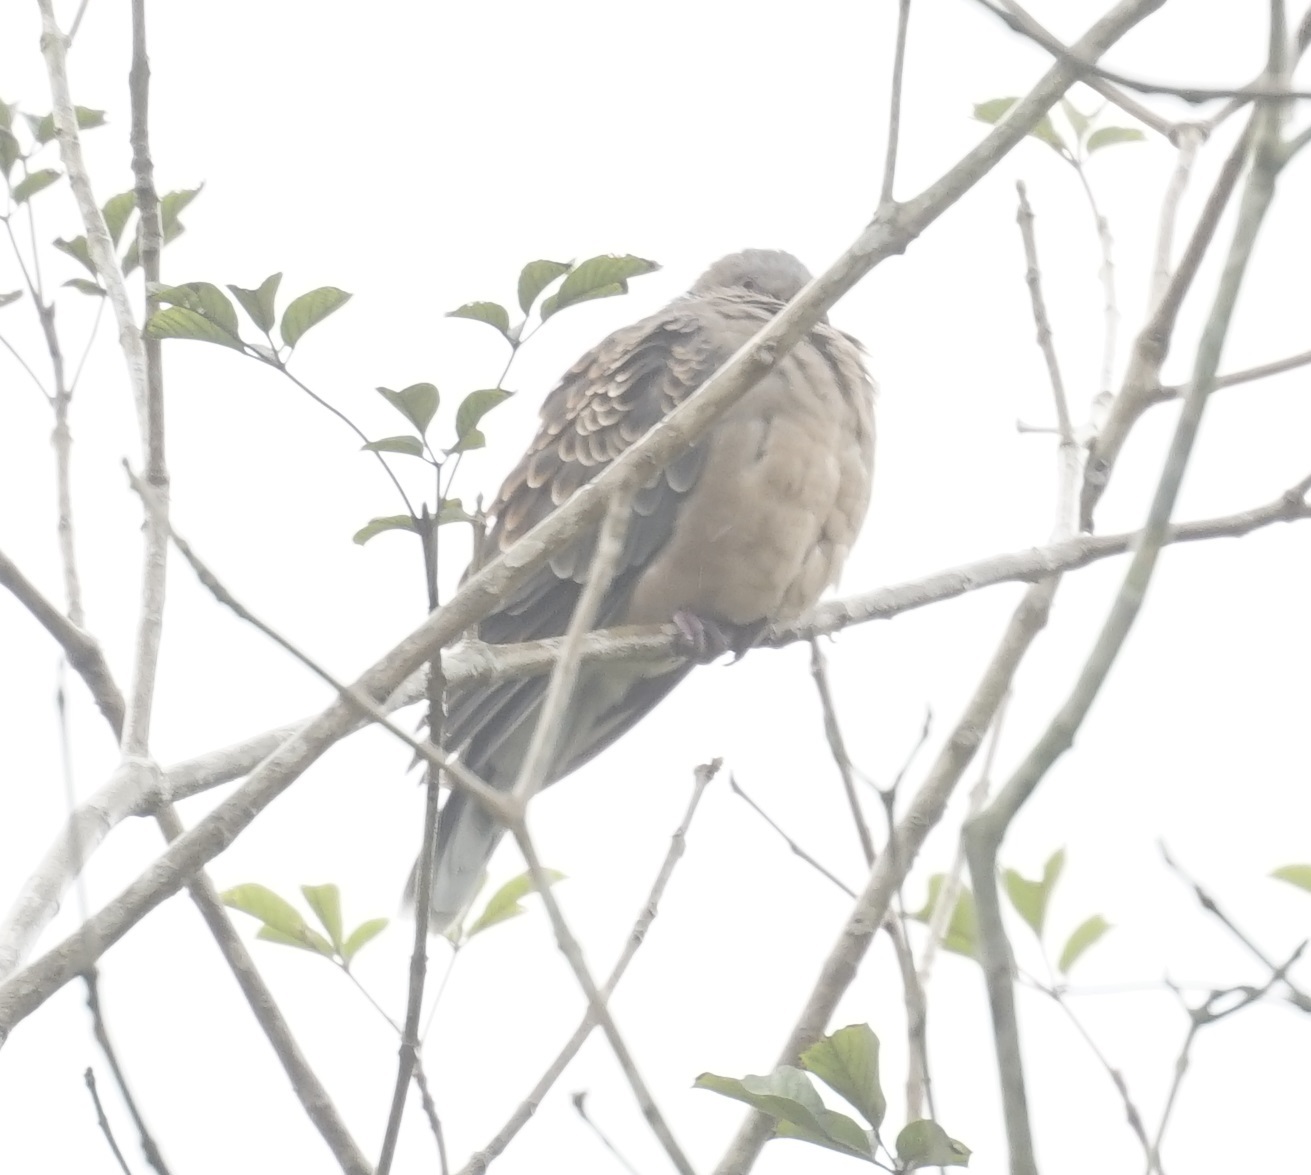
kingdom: Animalia
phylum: Chordata
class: Aves
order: Columbiformes
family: Columbidae
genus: Streptopelia
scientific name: Streptopelia orientalis
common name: Oriental turtle dove
